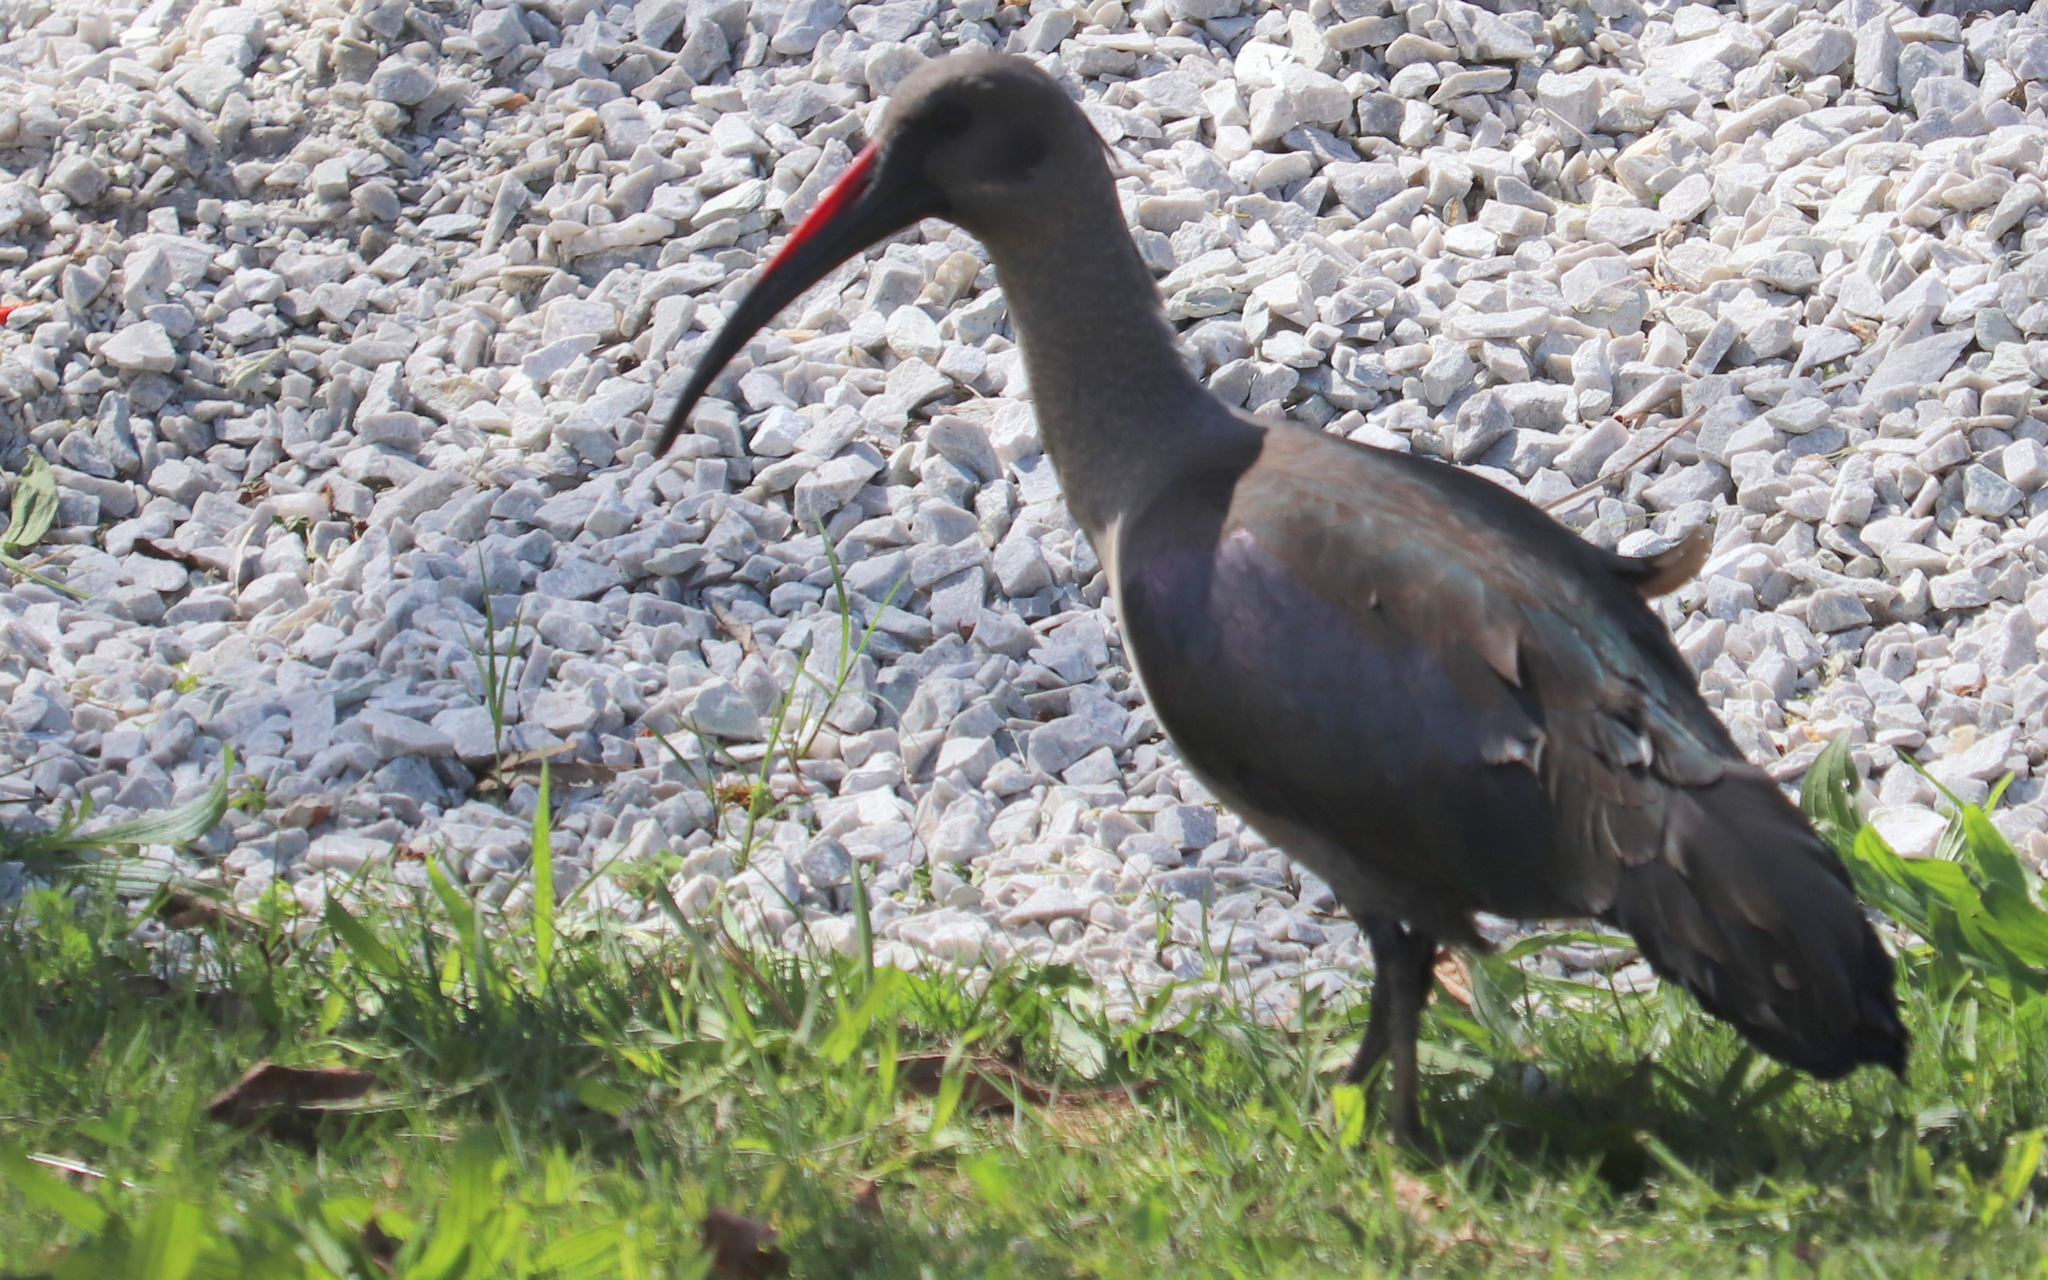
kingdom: Animalia
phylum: Chordata
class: Aves
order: Pelecaniformes
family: Threskiornithidae
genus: Bostrychia
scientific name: Bostrychia hagedash
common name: Hadada ibis
